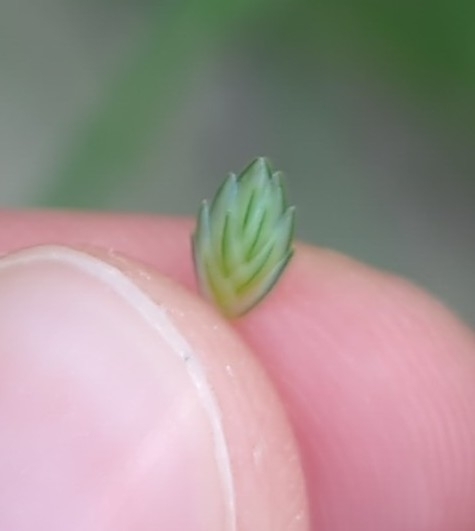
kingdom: Plantae
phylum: Tracheophyta
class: Liliopsida
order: Poales
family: Poaceae
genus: Eragrostis
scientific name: Eragrostis superba
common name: Wilman lovegrass
